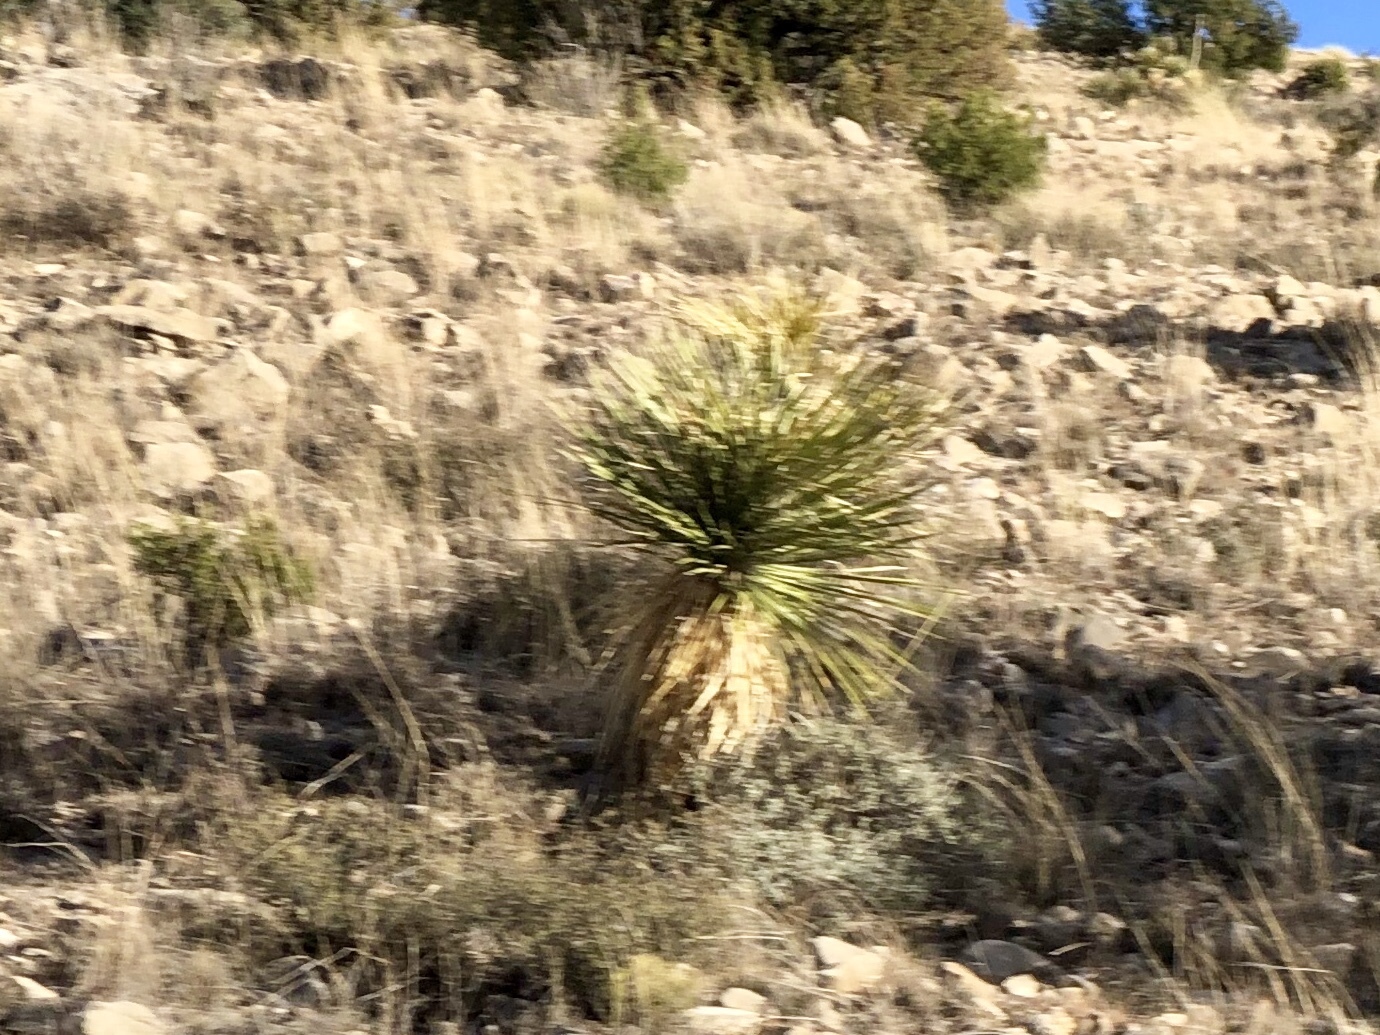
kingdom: Plantae
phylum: Tracheophyta
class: Liliopsida
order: Asparagales
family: Asparagaceae
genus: Yucca
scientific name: Yucca elata
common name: Palmella
